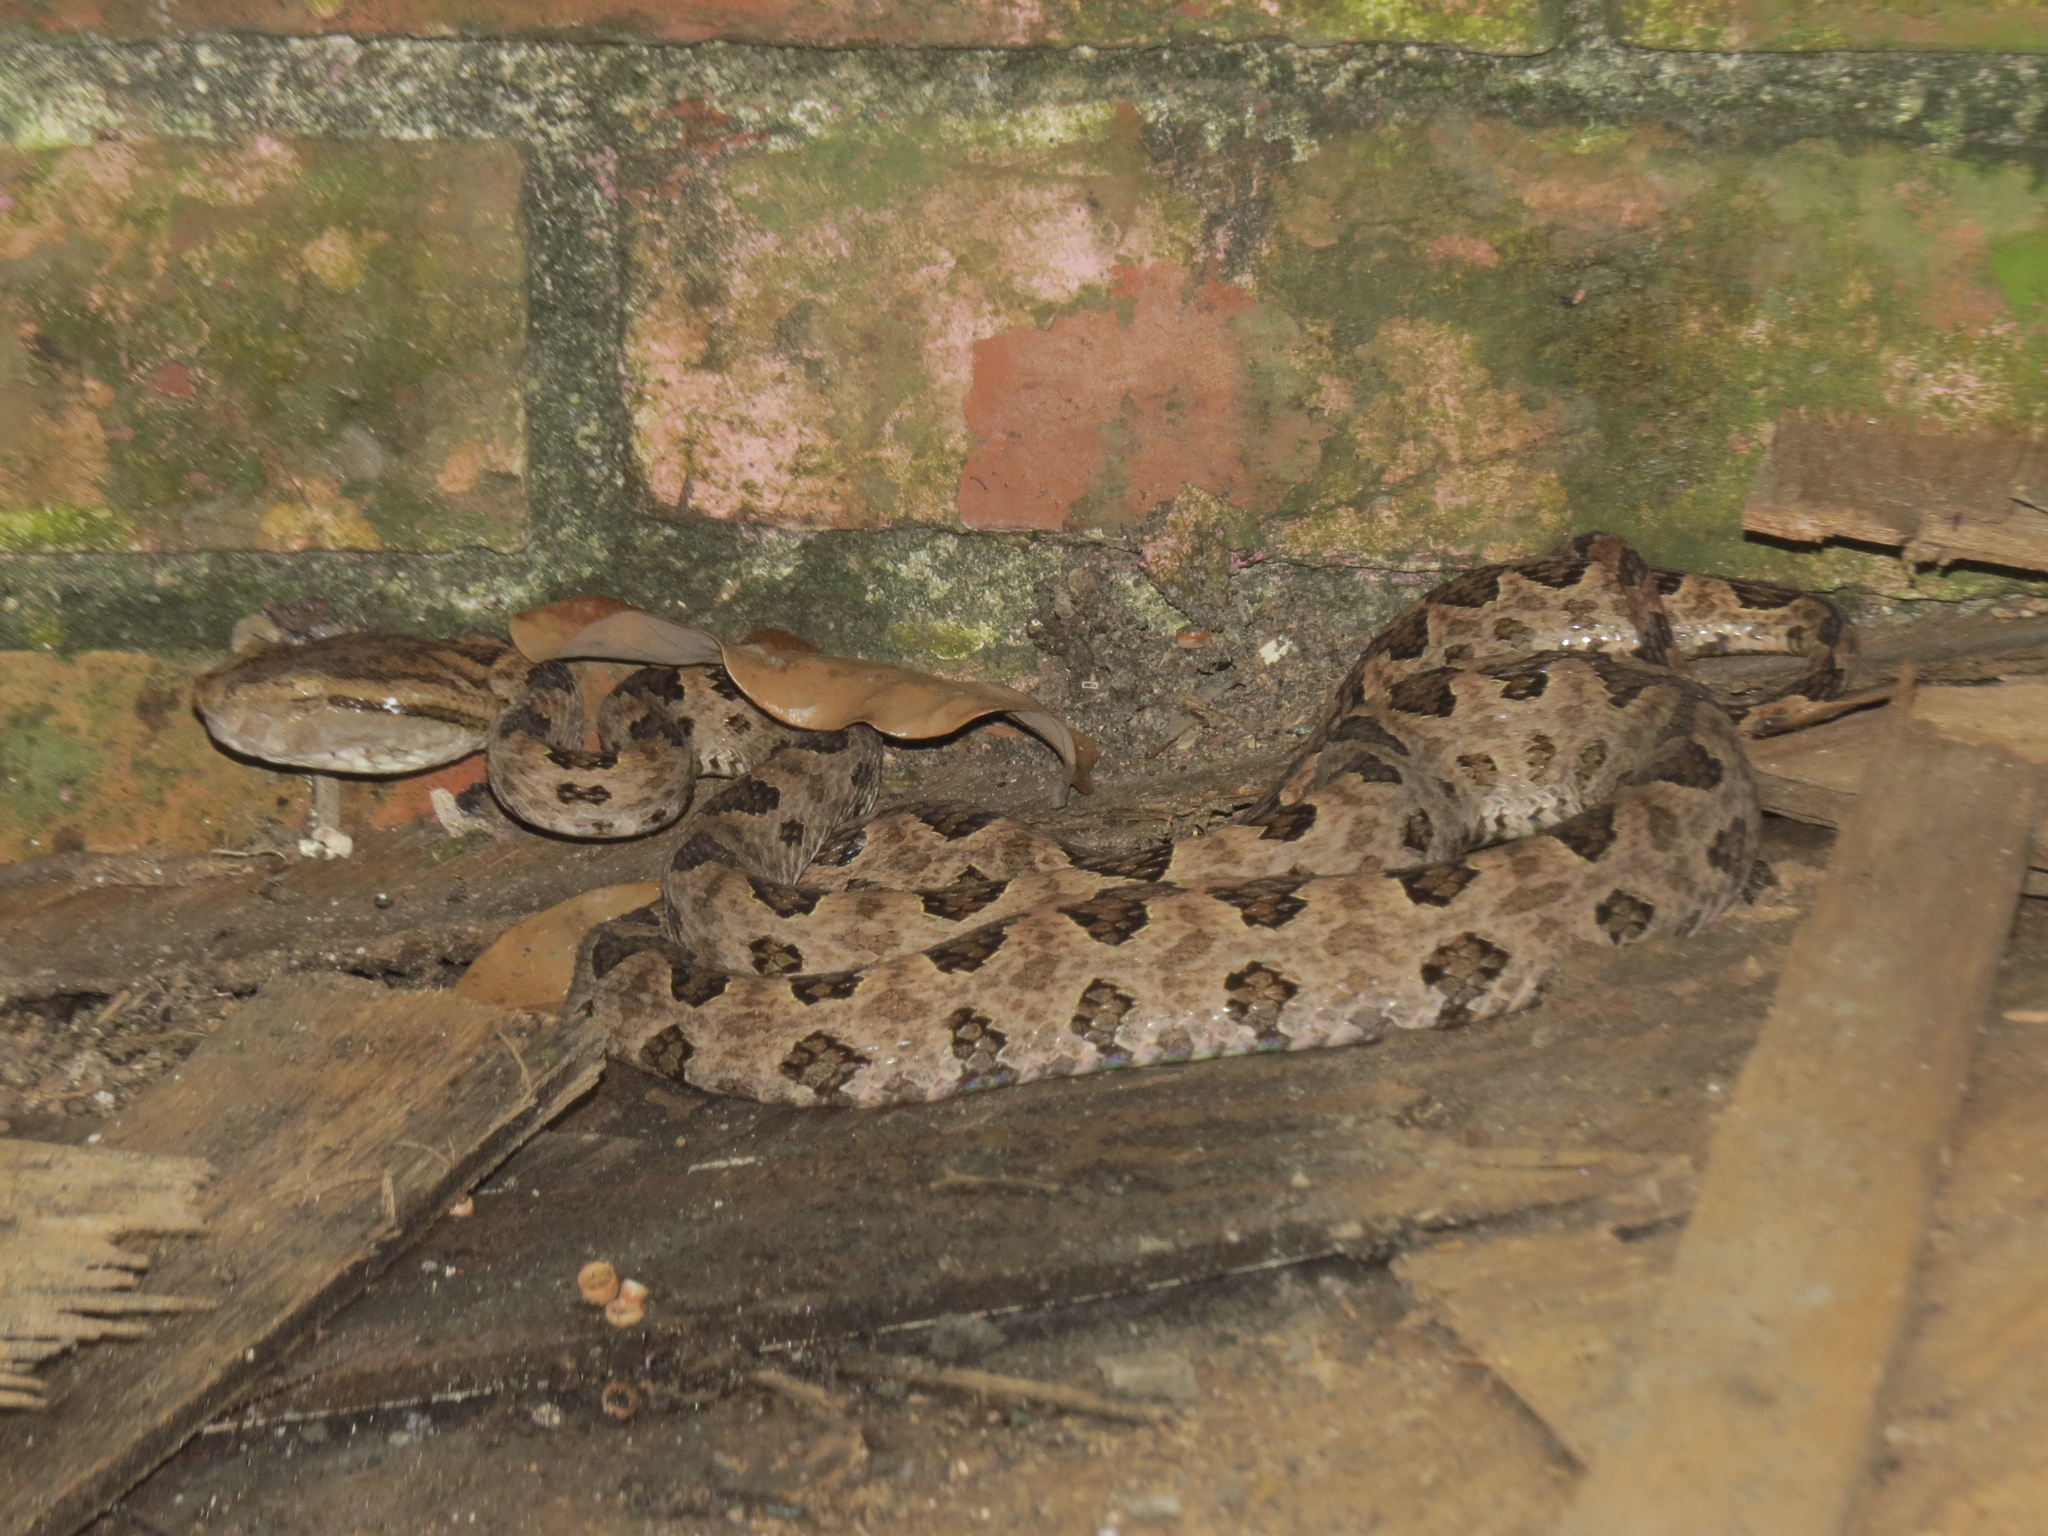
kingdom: Animalia
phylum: Chordata
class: Squamata
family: Viperidae
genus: Protobothrops
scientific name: Protobothrops mucrosquamatus
